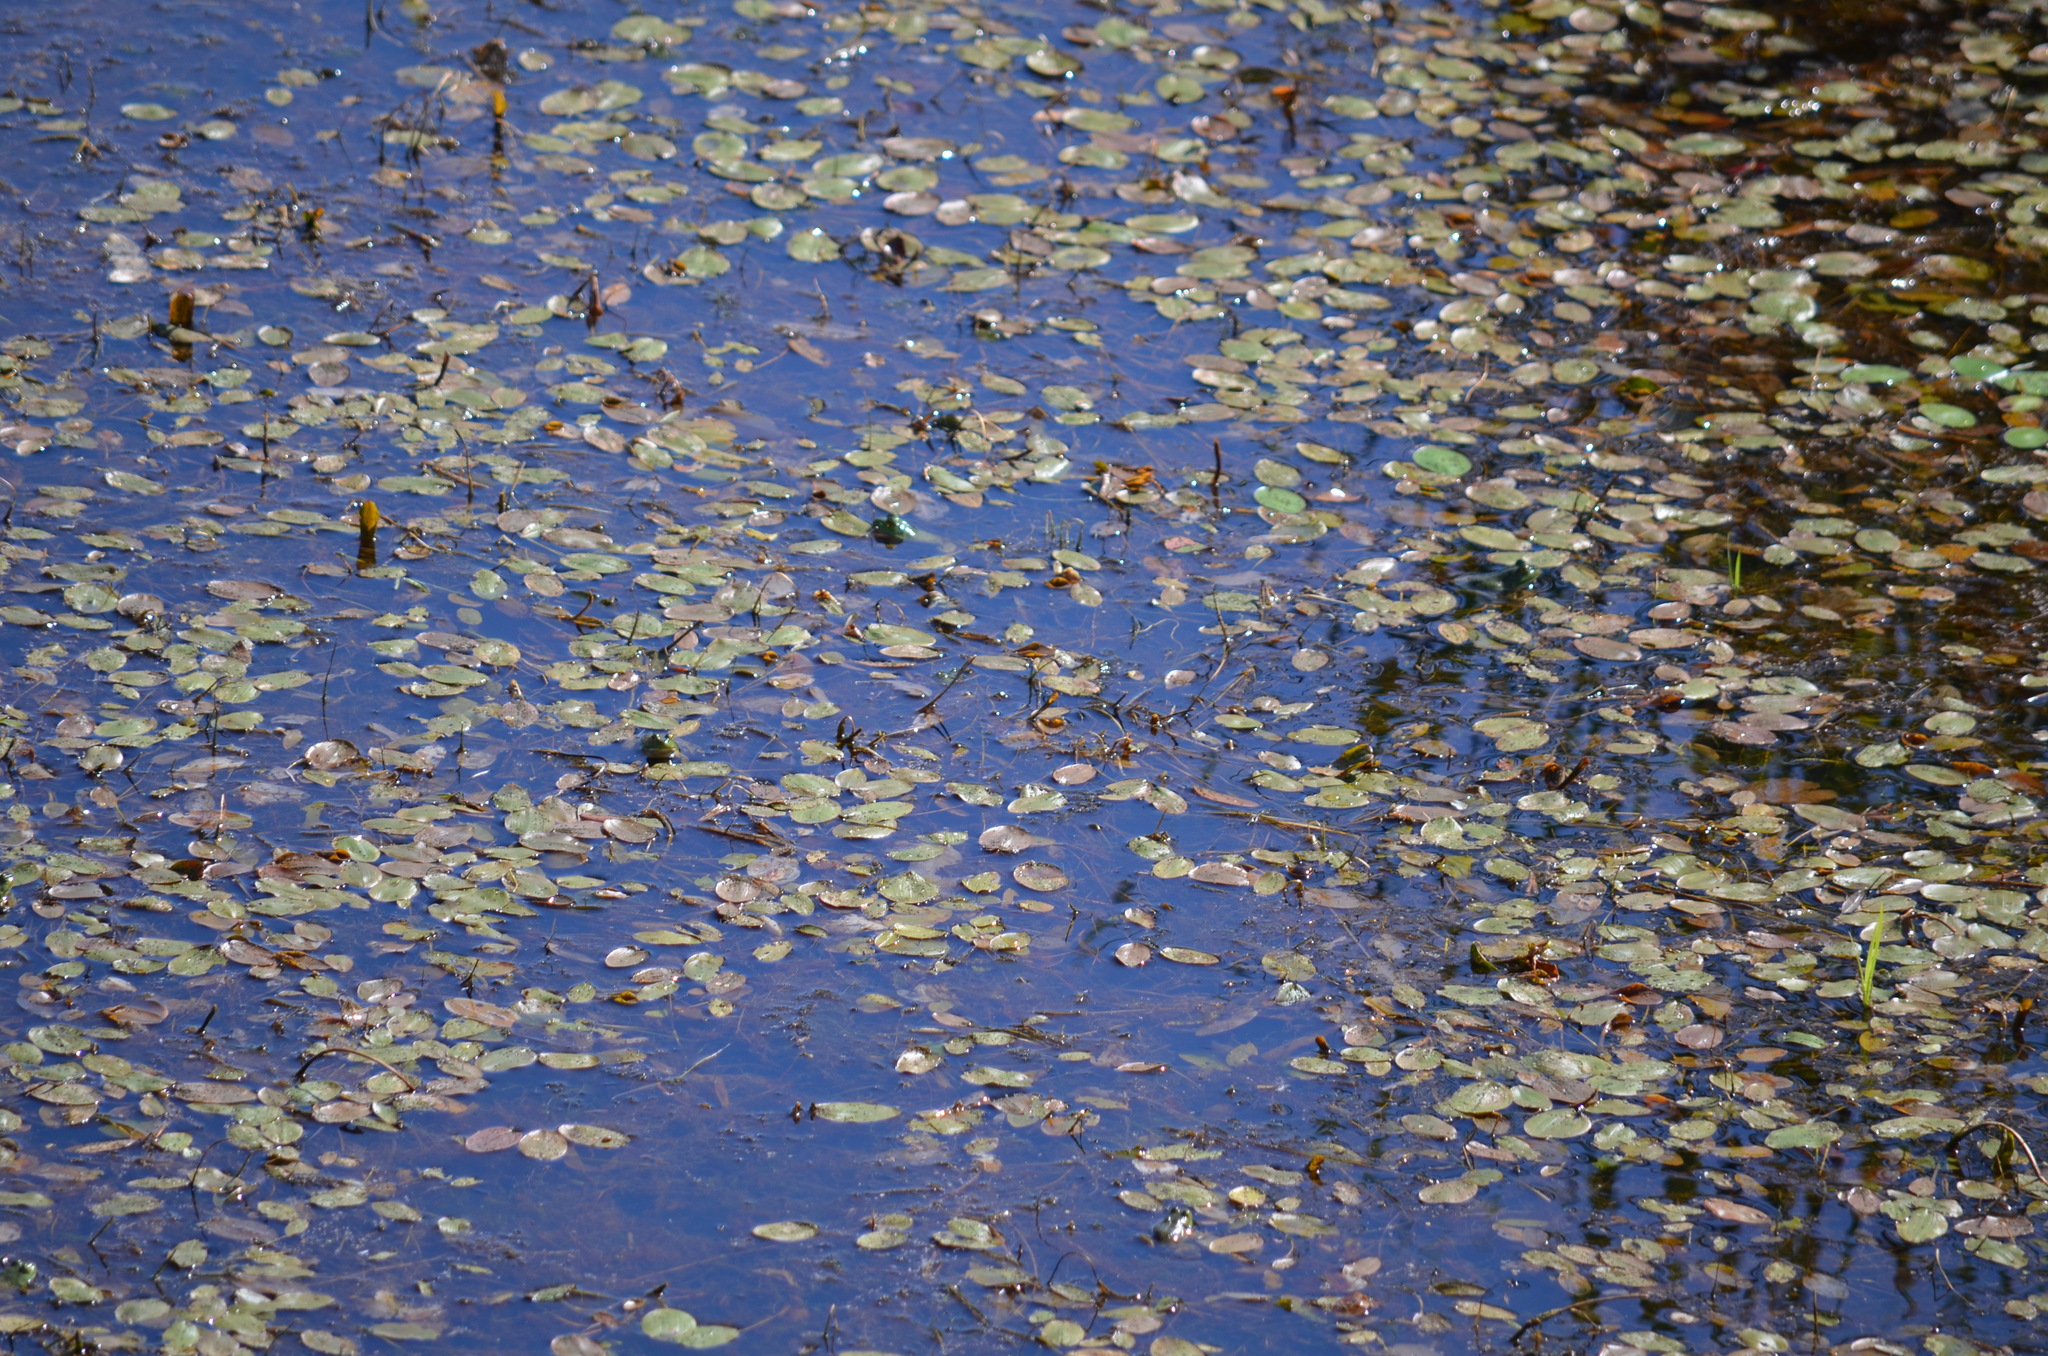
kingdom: Plantae
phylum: Tracheophyta
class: Magnoliopsida
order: Nymphaeales
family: Cabombaceae
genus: Brasenia
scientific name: Brasenia schreberi
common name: Water-shield
